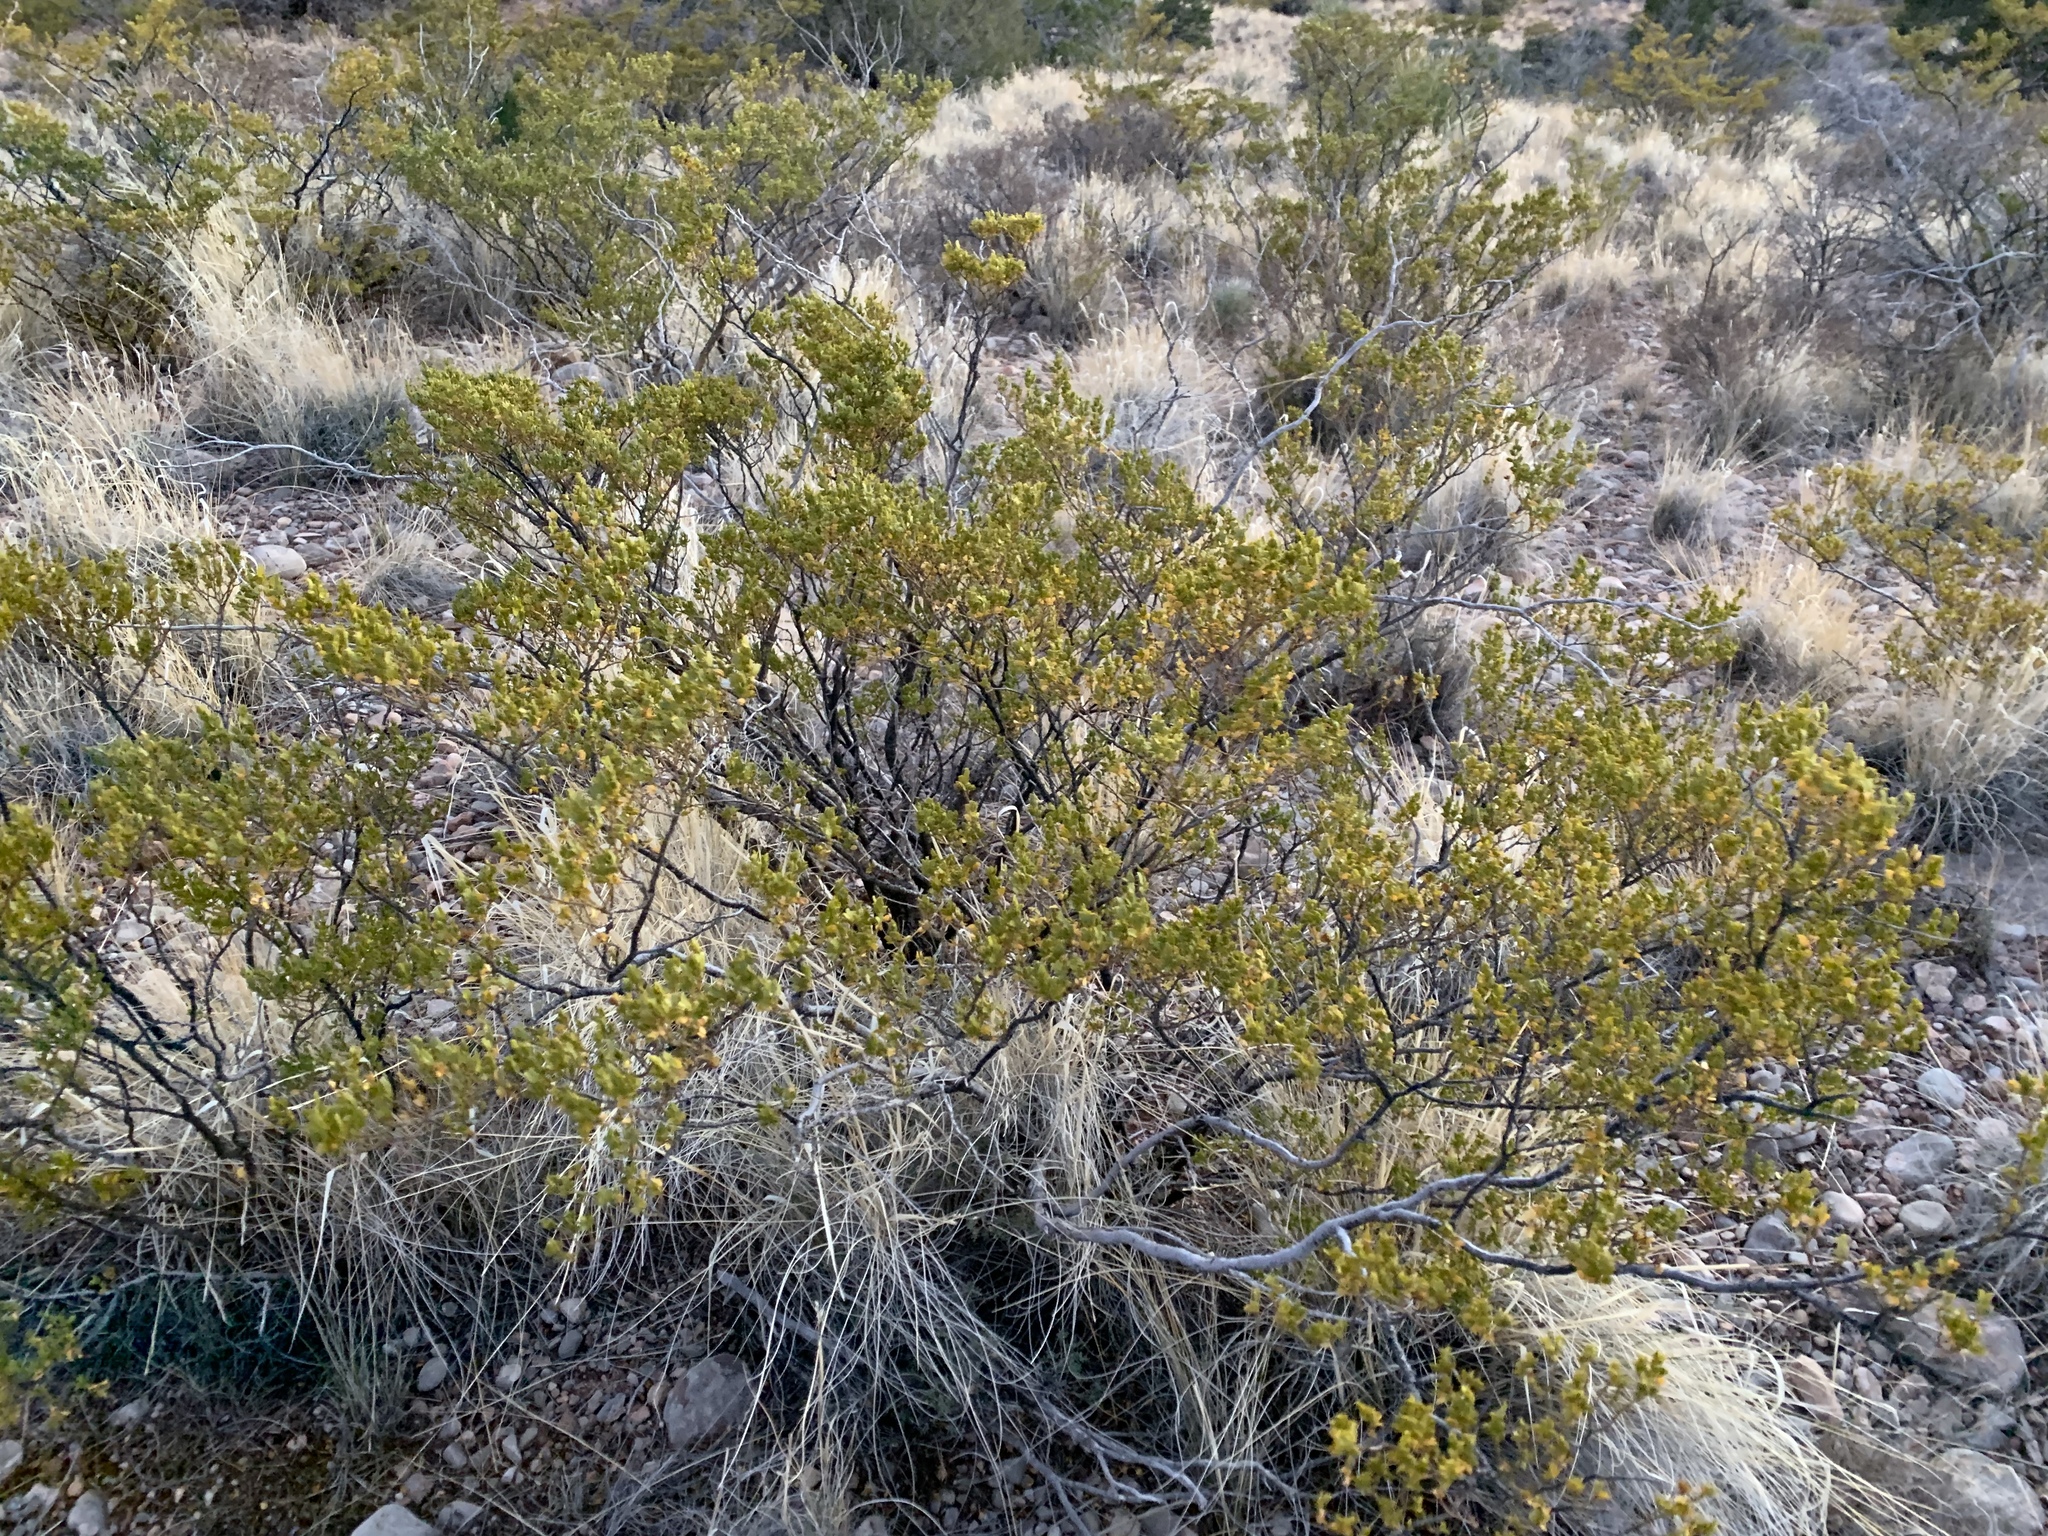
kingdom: Plantae
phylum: Tracheophyta
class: Magnoliopsida
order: Zygophyllales
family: Zygophyllaceae
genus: Larrea
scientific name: Larrea tridentata
